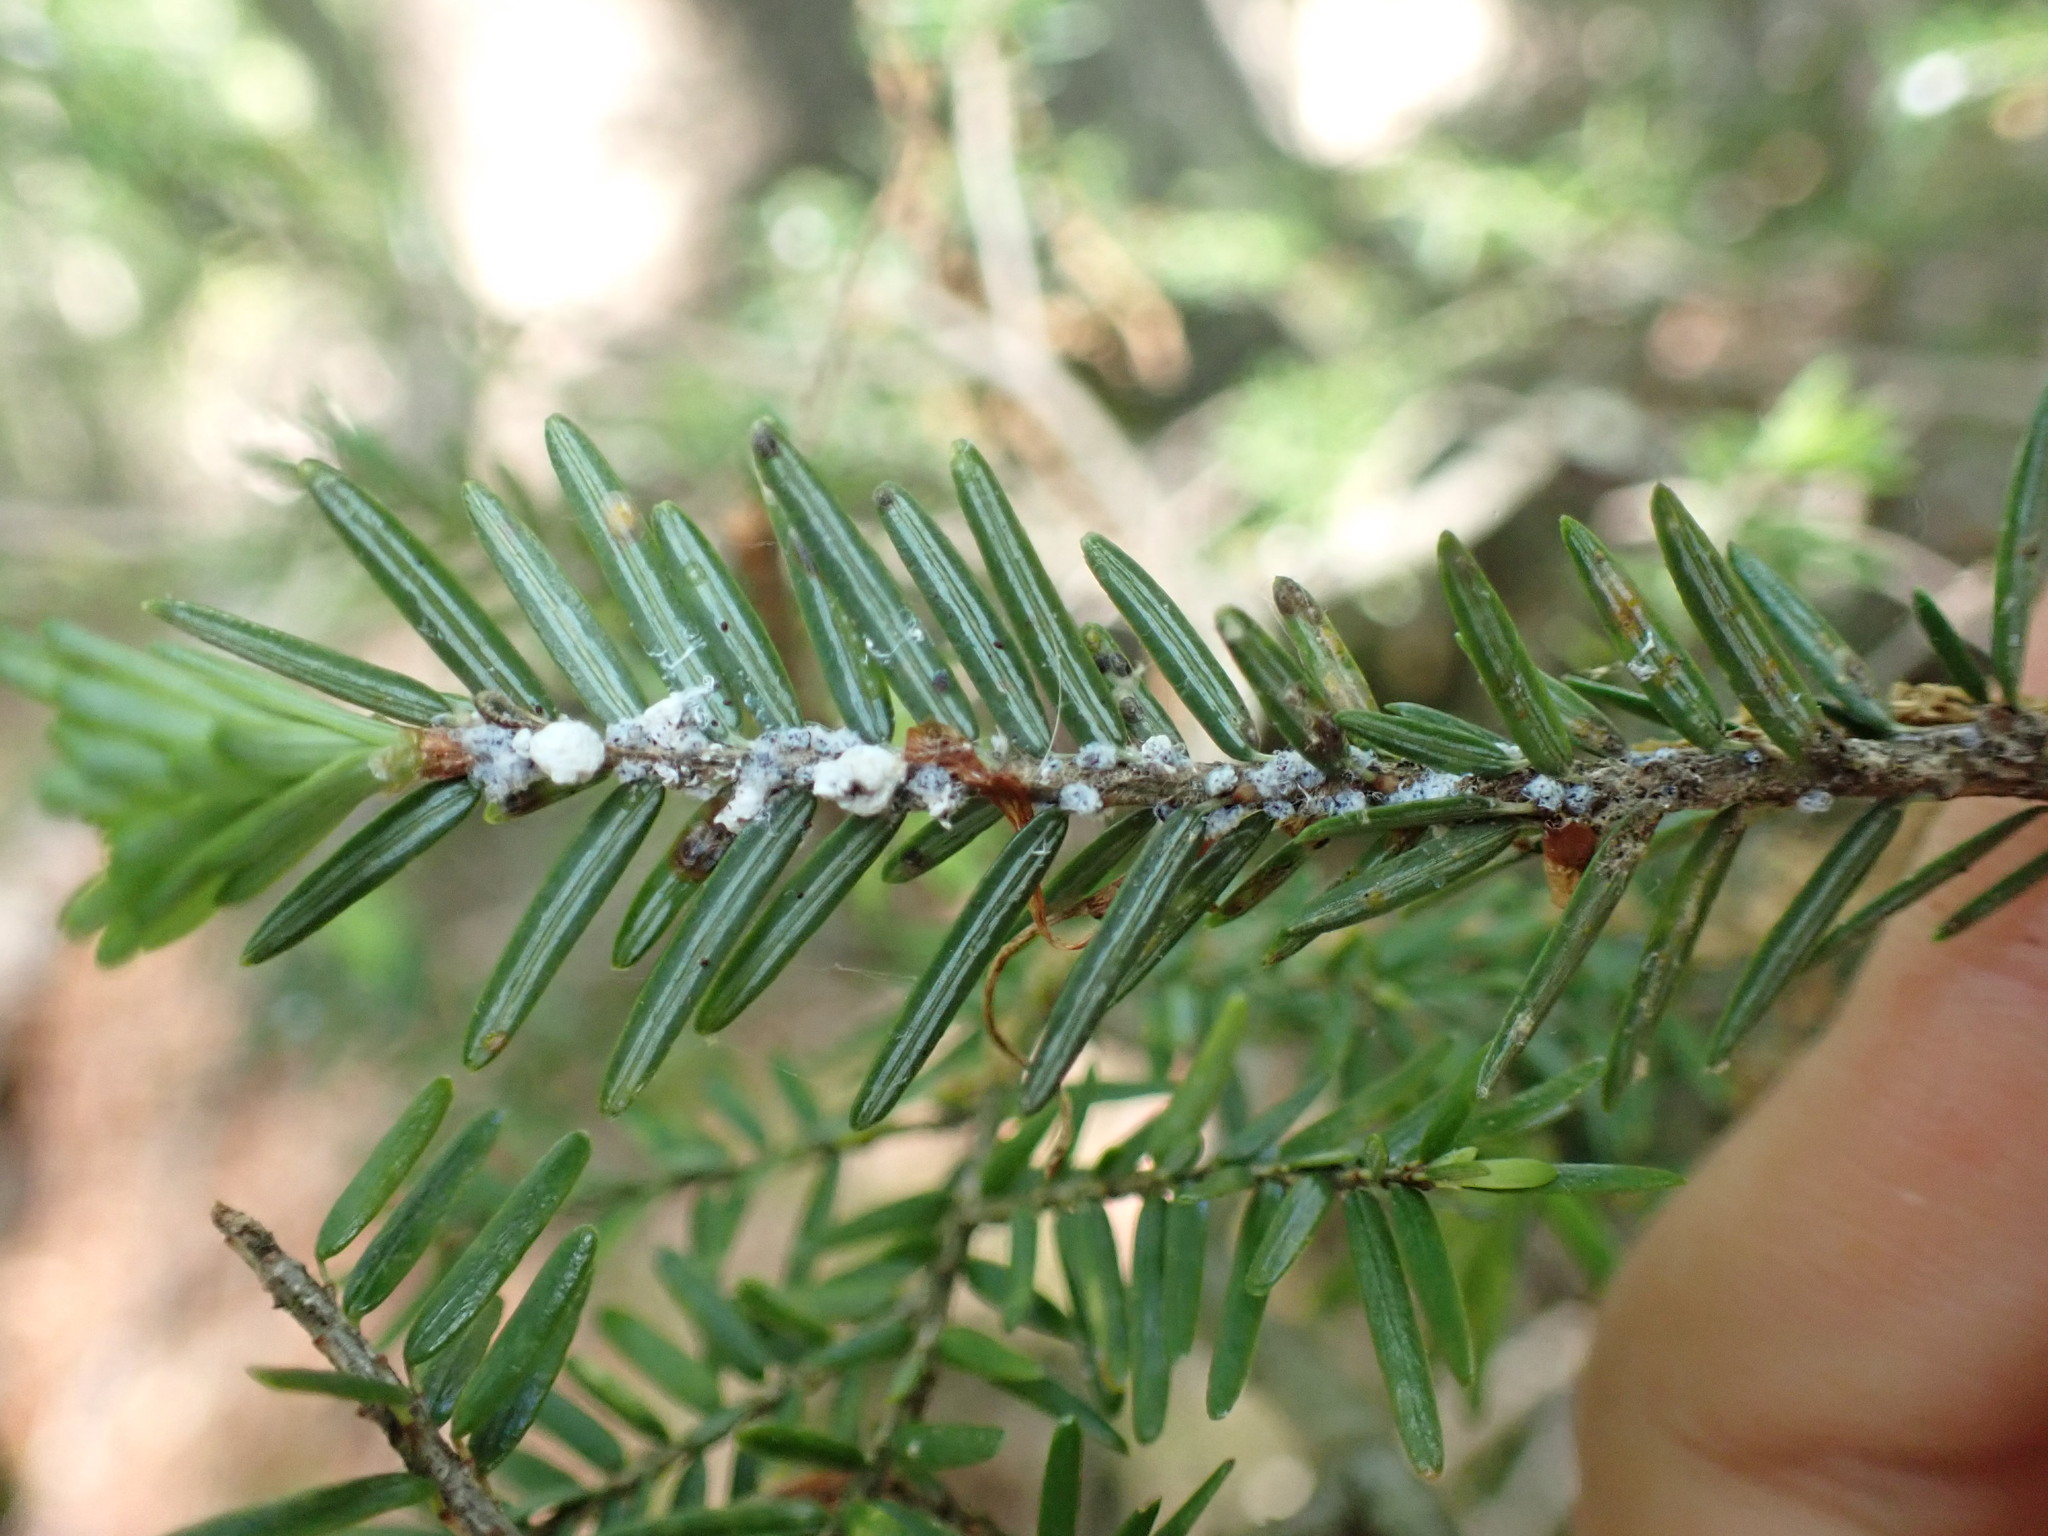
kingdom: Animalia
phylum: Arthropoda
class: Insecta
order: Hemiptera
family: Adelgidae
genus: Adelges
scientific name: Adelges tsugae
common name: Hemlock woolly adelgid
